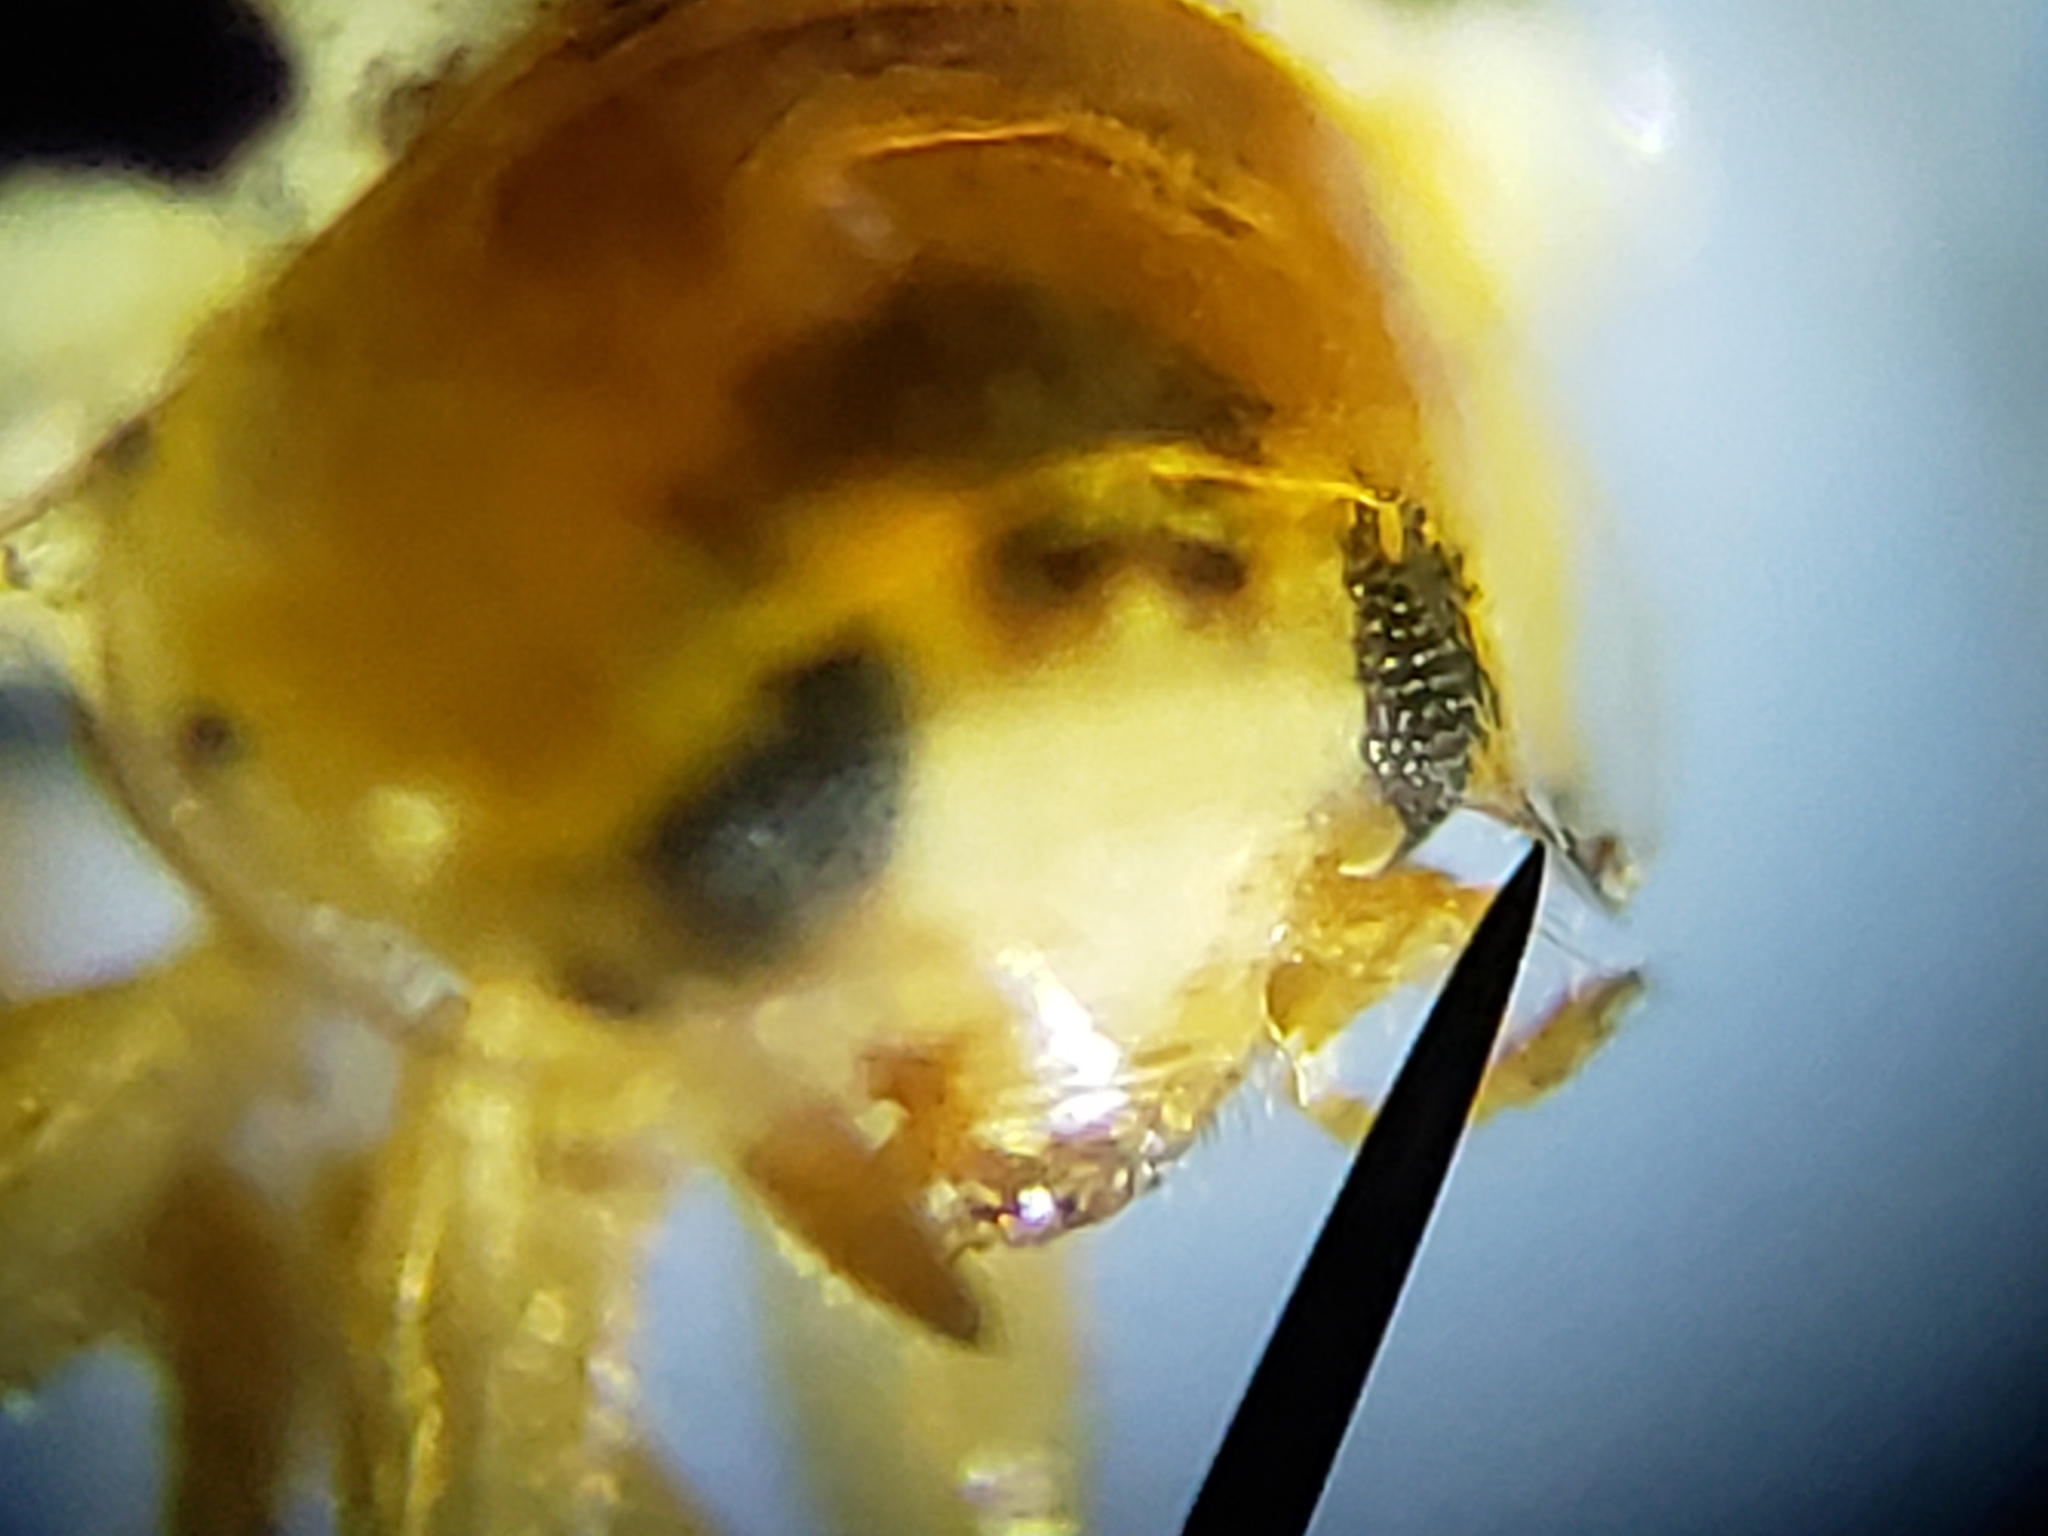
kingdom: Animalia
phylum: Arthropoda
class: Insecta
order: Coleoptera
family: Coccinellidae
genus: Psyllobora
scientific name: Psyllobora parvinotata
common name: Small-spotted psyllobora
